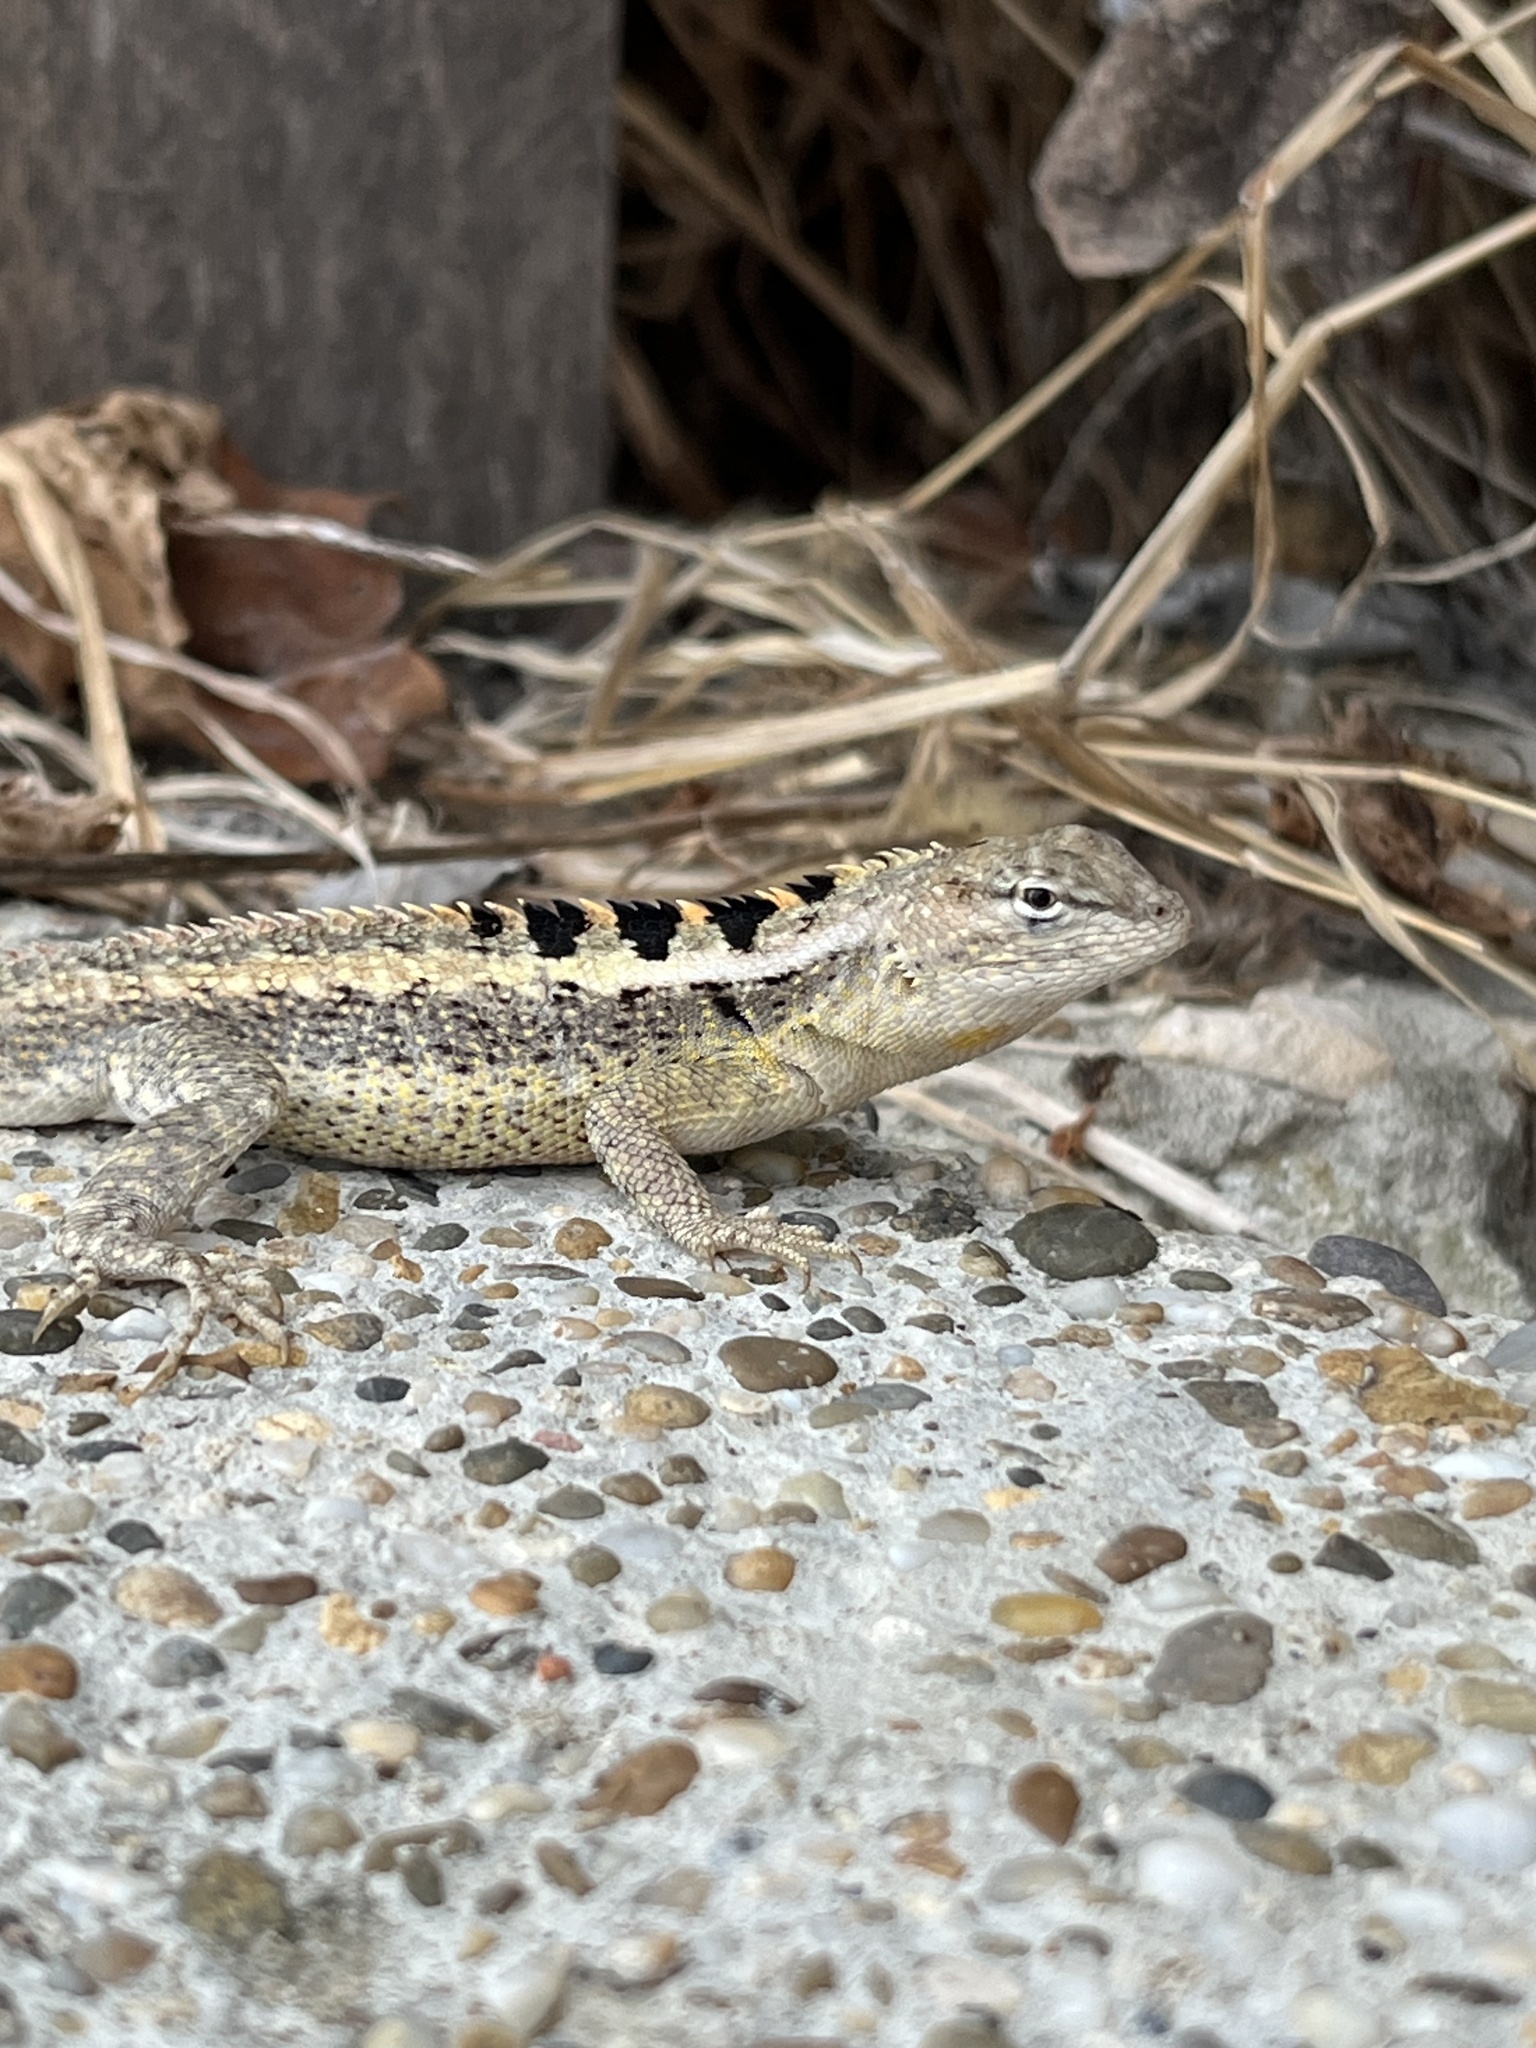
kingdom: Animalia
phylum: Chordata
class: Squamata
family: Tropiduridae
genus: Microlophus
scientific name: Microlophus occipitalis
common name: Knobbed pacific iguana
